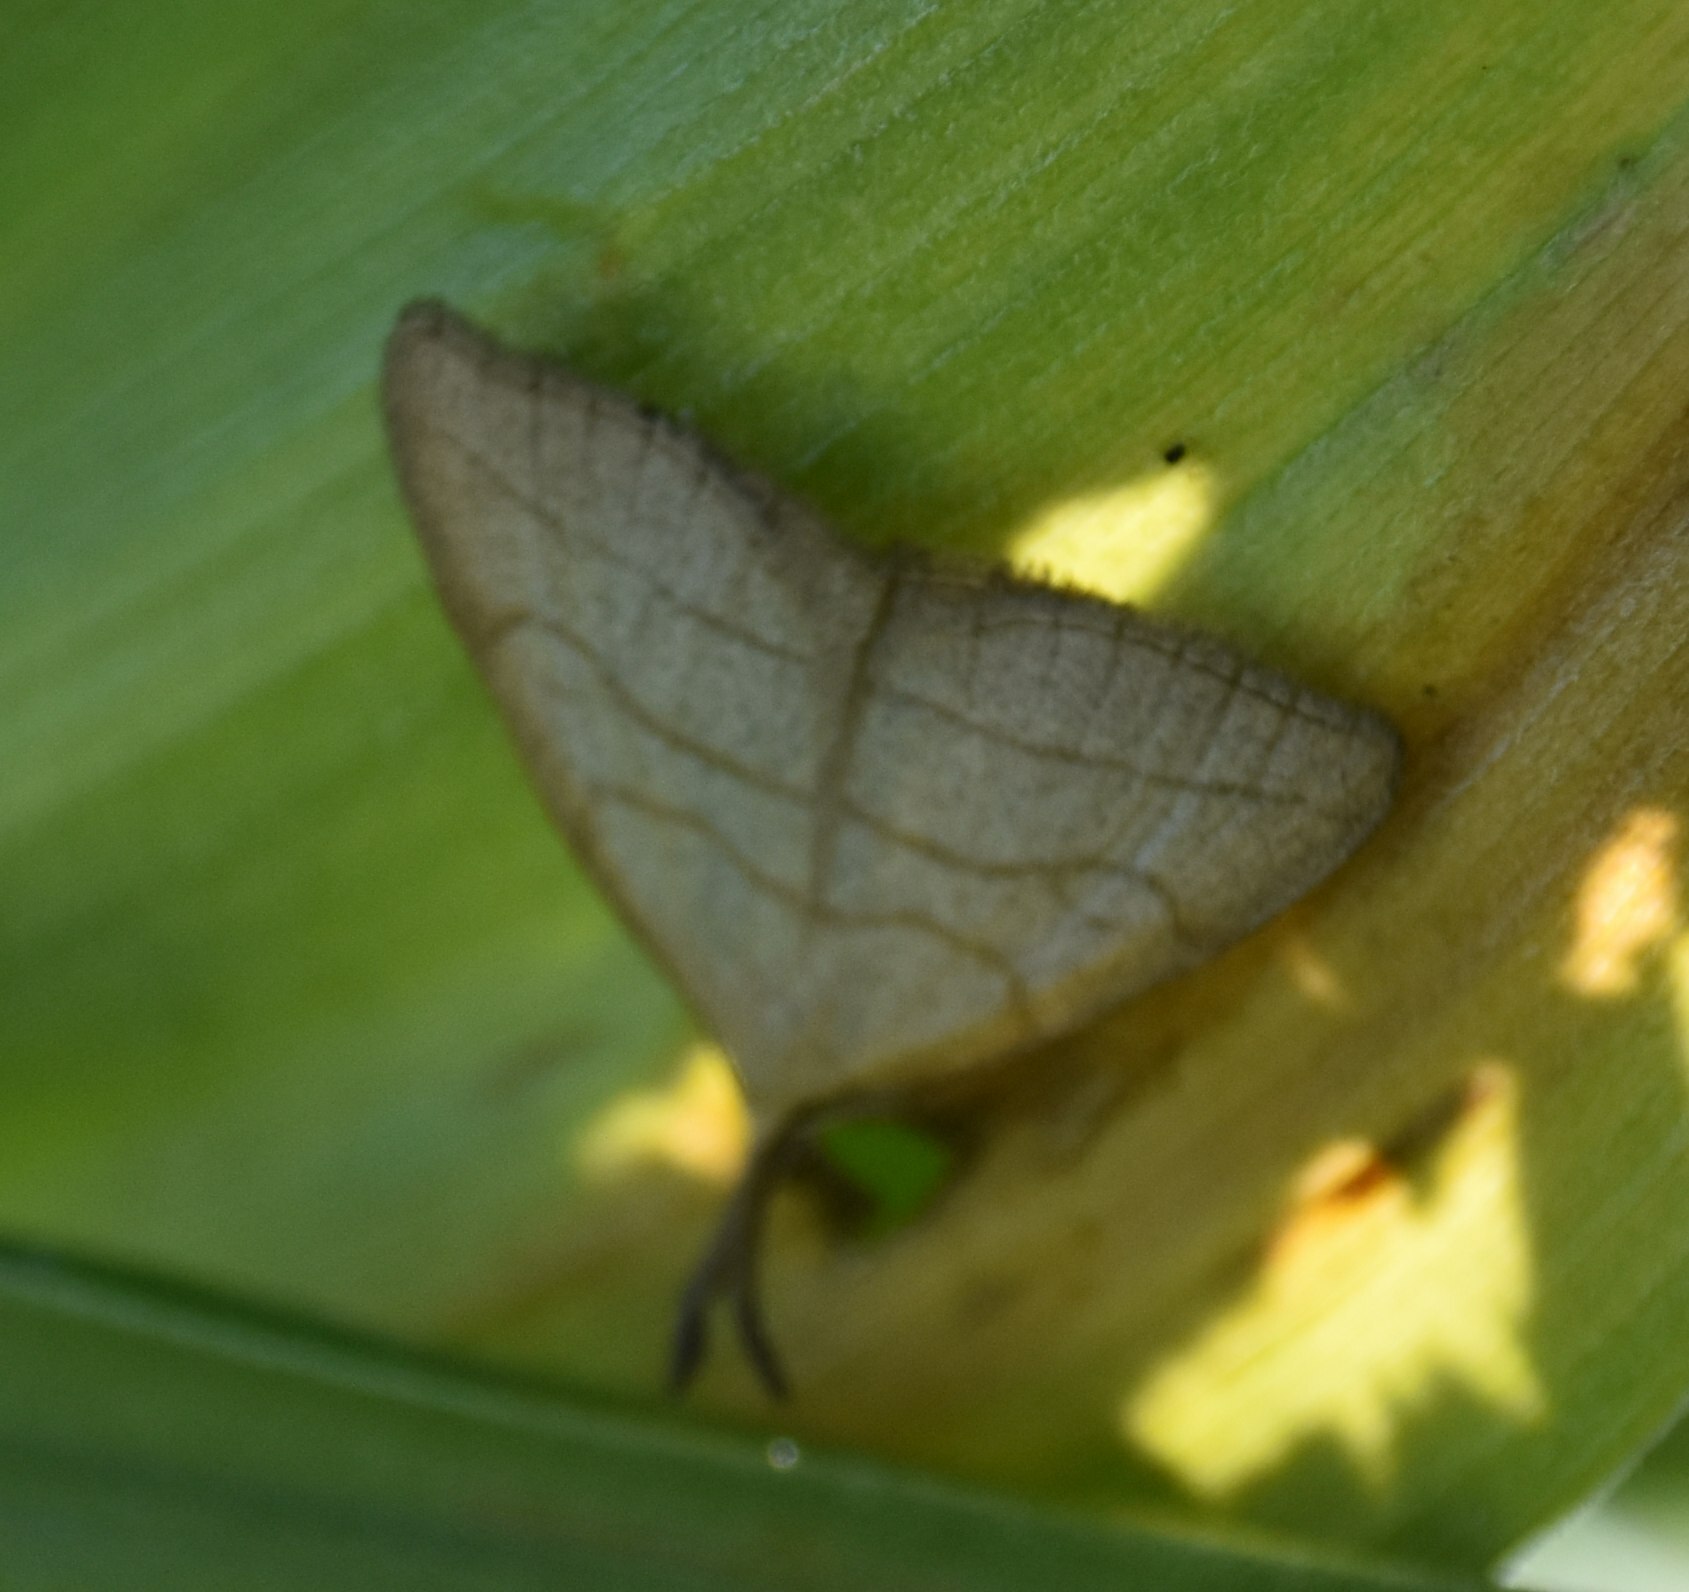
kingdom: Animalia
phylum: Arthropoda
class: Insecta
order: Lepidoptera
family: Erebidae
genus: Polypogon
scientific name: Polypogon tentacularia
